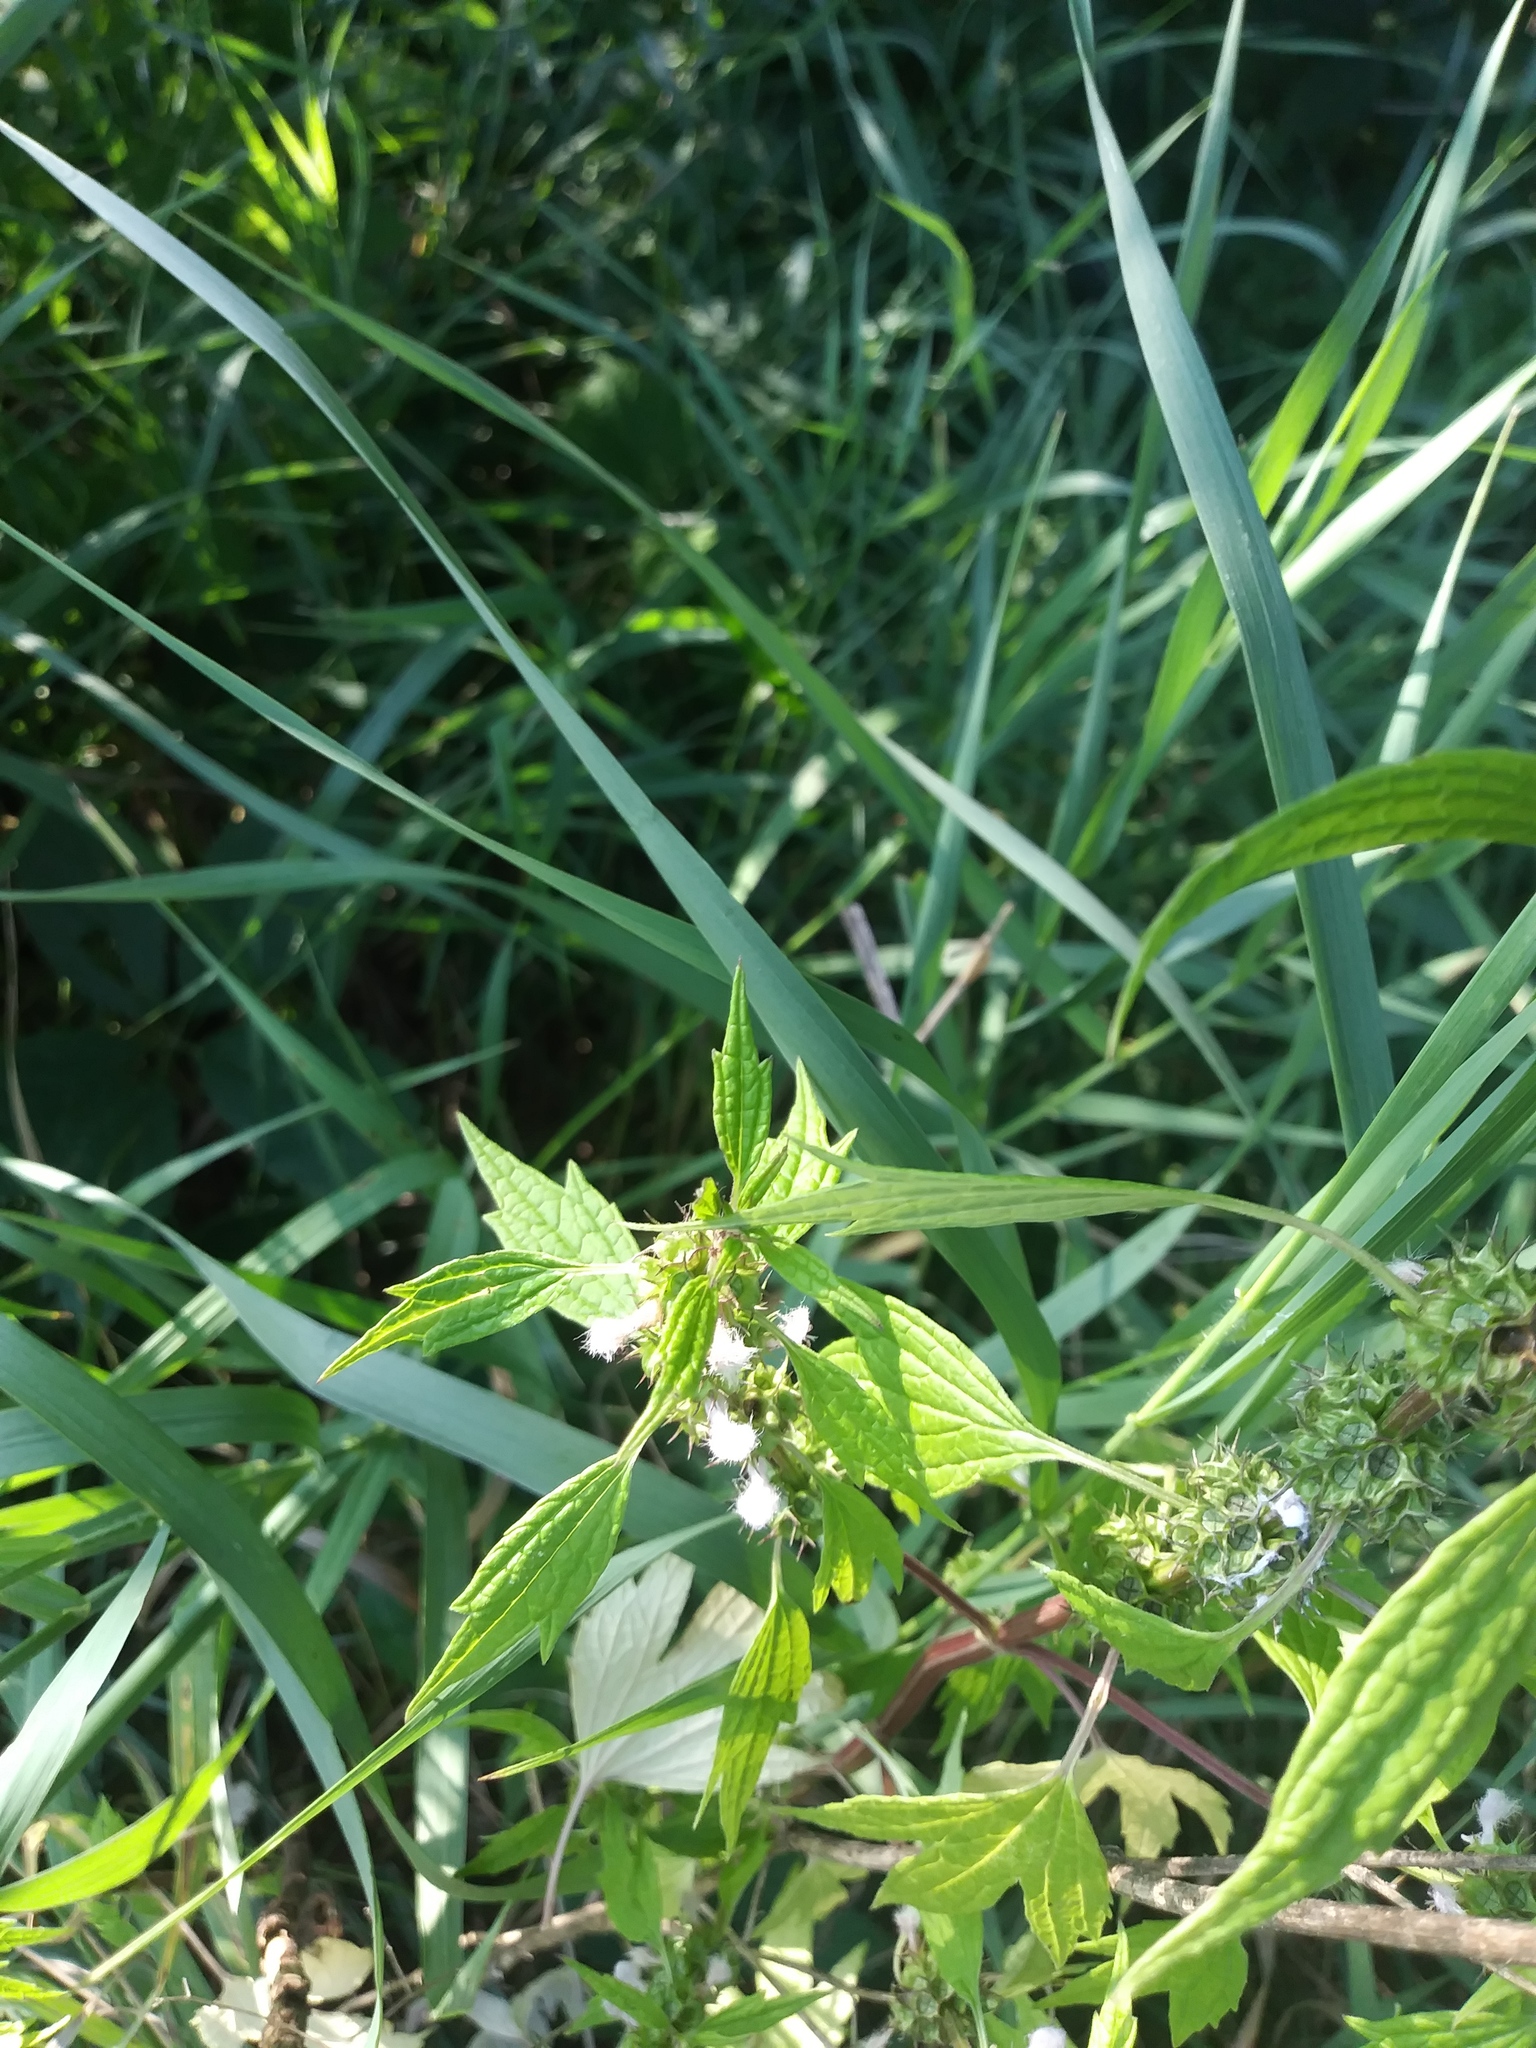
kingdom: Plantae
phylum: Tracheophyta
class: Magnoliopsida
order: Lamiales
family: Lamiaceae
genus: Leonurus
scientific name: Leonurus cardiaca
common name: Motherwort
